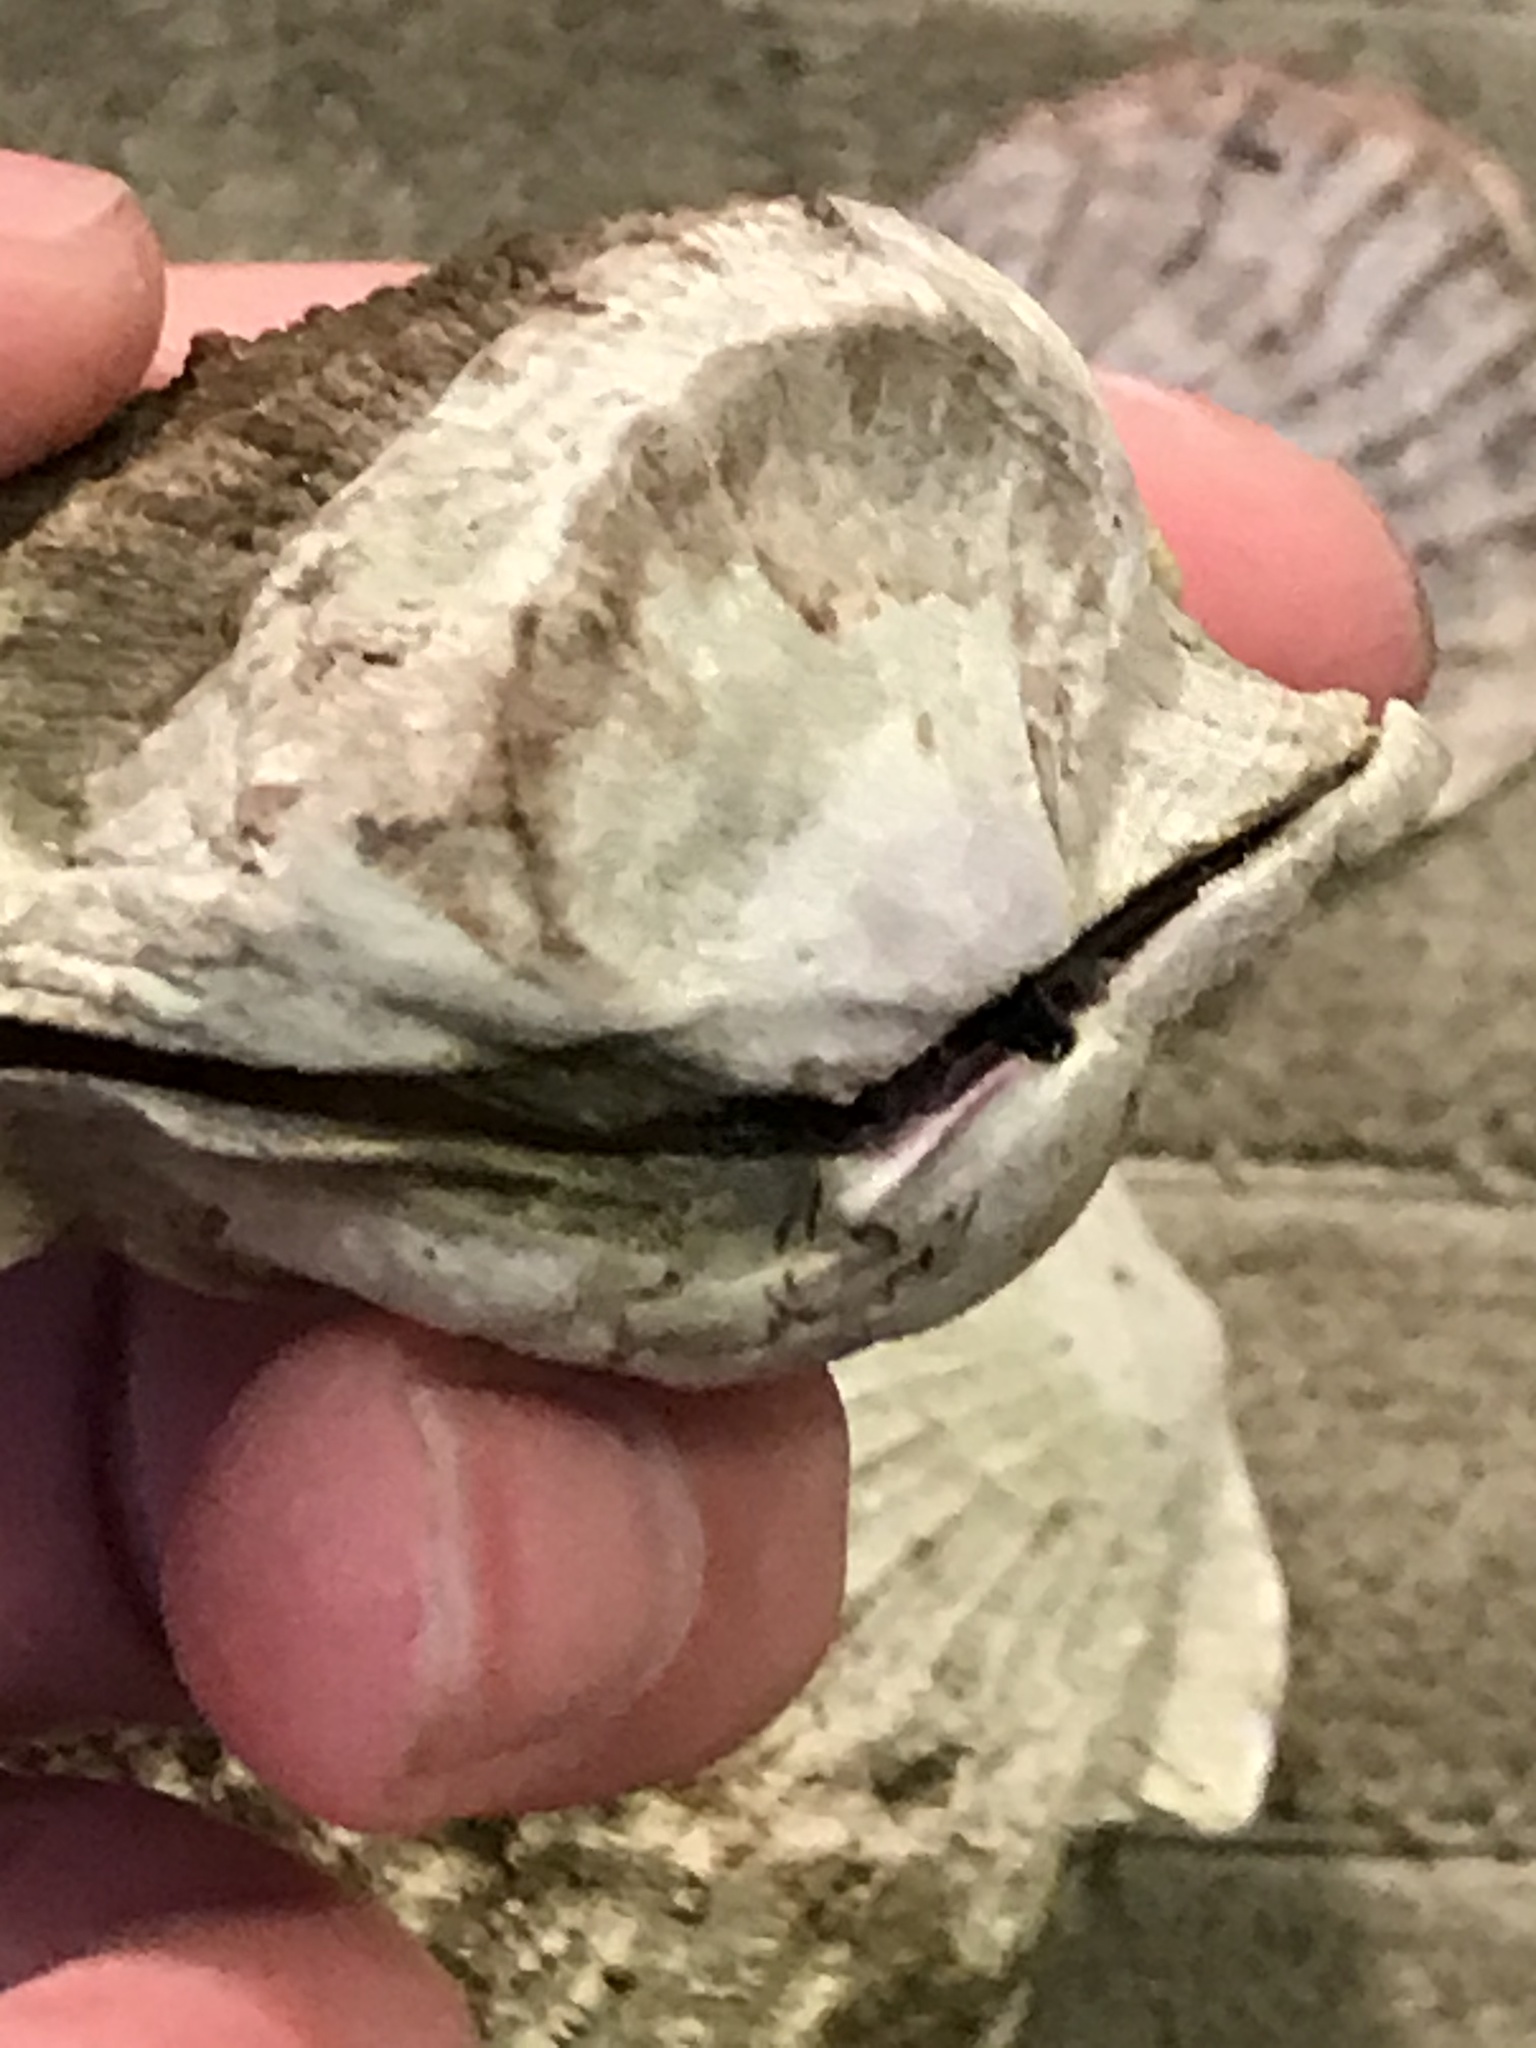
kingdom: Animalia
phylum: Mollusca
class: Bivalvia
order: Pectinida
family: Pectinidae
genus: Crassadoma
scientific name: Crassadoma gigantea
